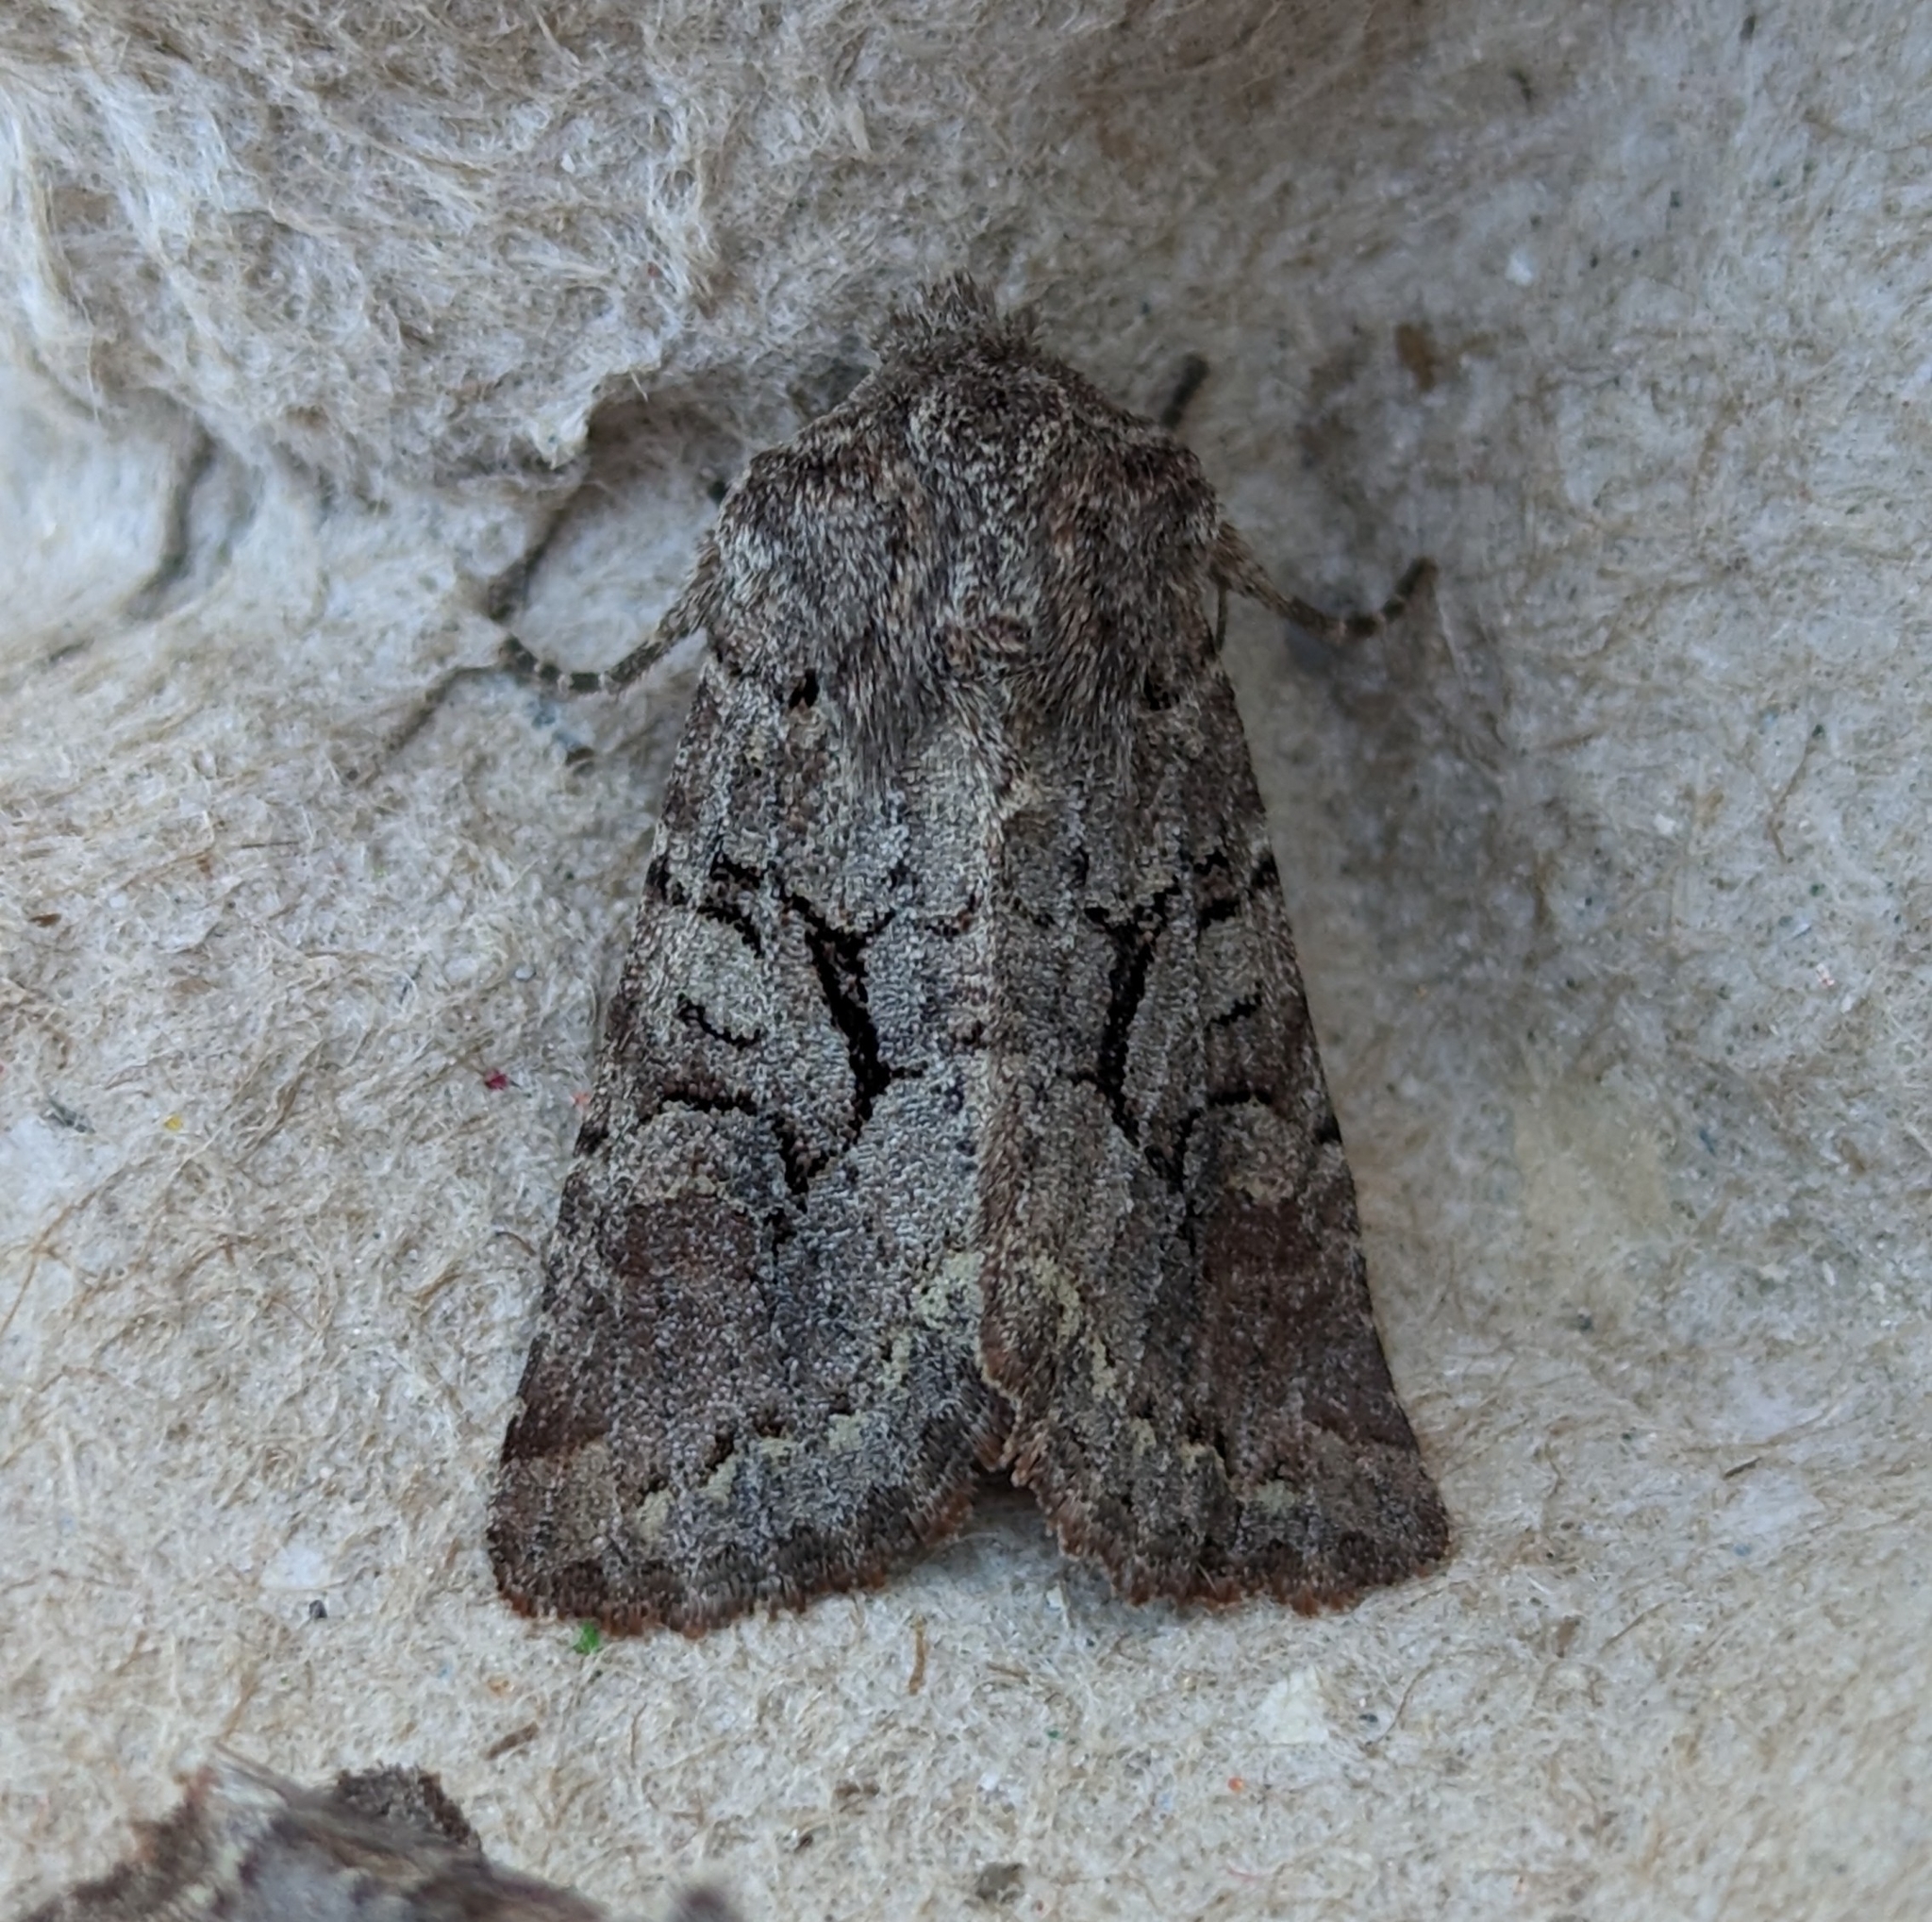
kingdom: Animalia
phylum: Arthropoda
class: Insecta
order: Lepidoptera
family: Noctuidae
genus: Orthosia
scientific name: Orthosia segregata
